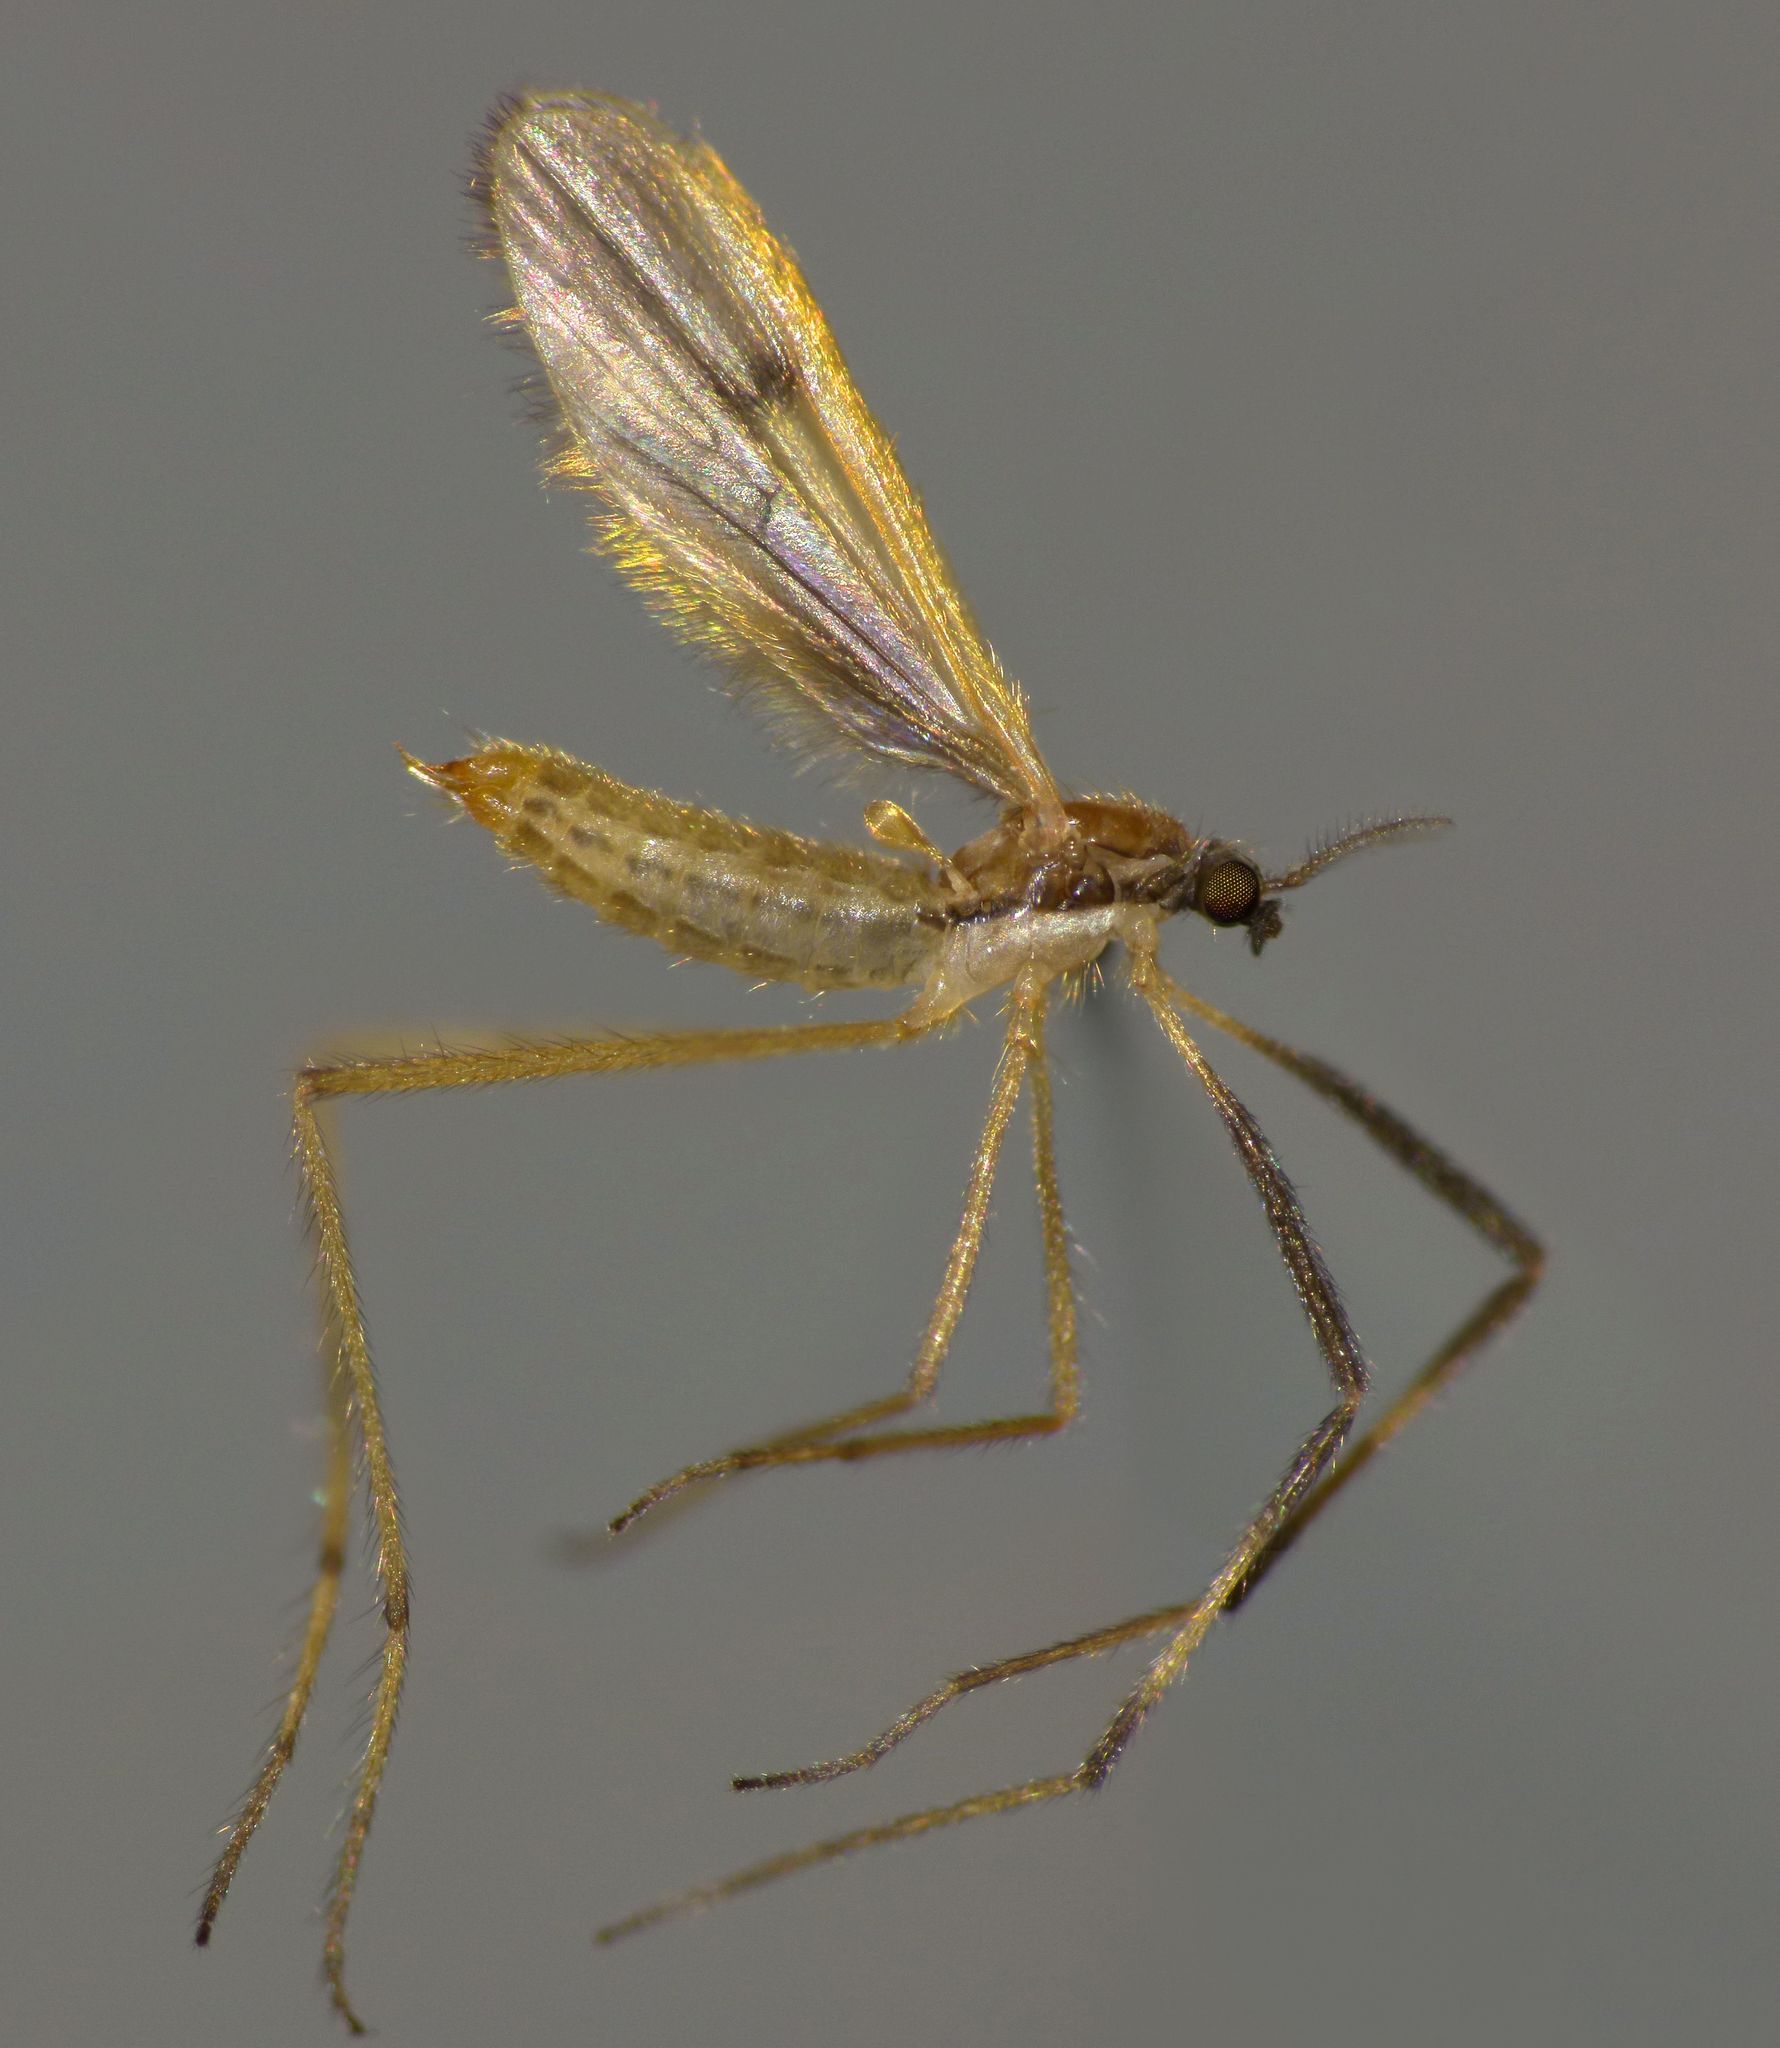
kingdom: Animalia
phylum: Arthropoda
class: Insecta
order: Diptera
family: Limoniidae
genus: Molophilus
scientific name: Molophilus plagiatus
